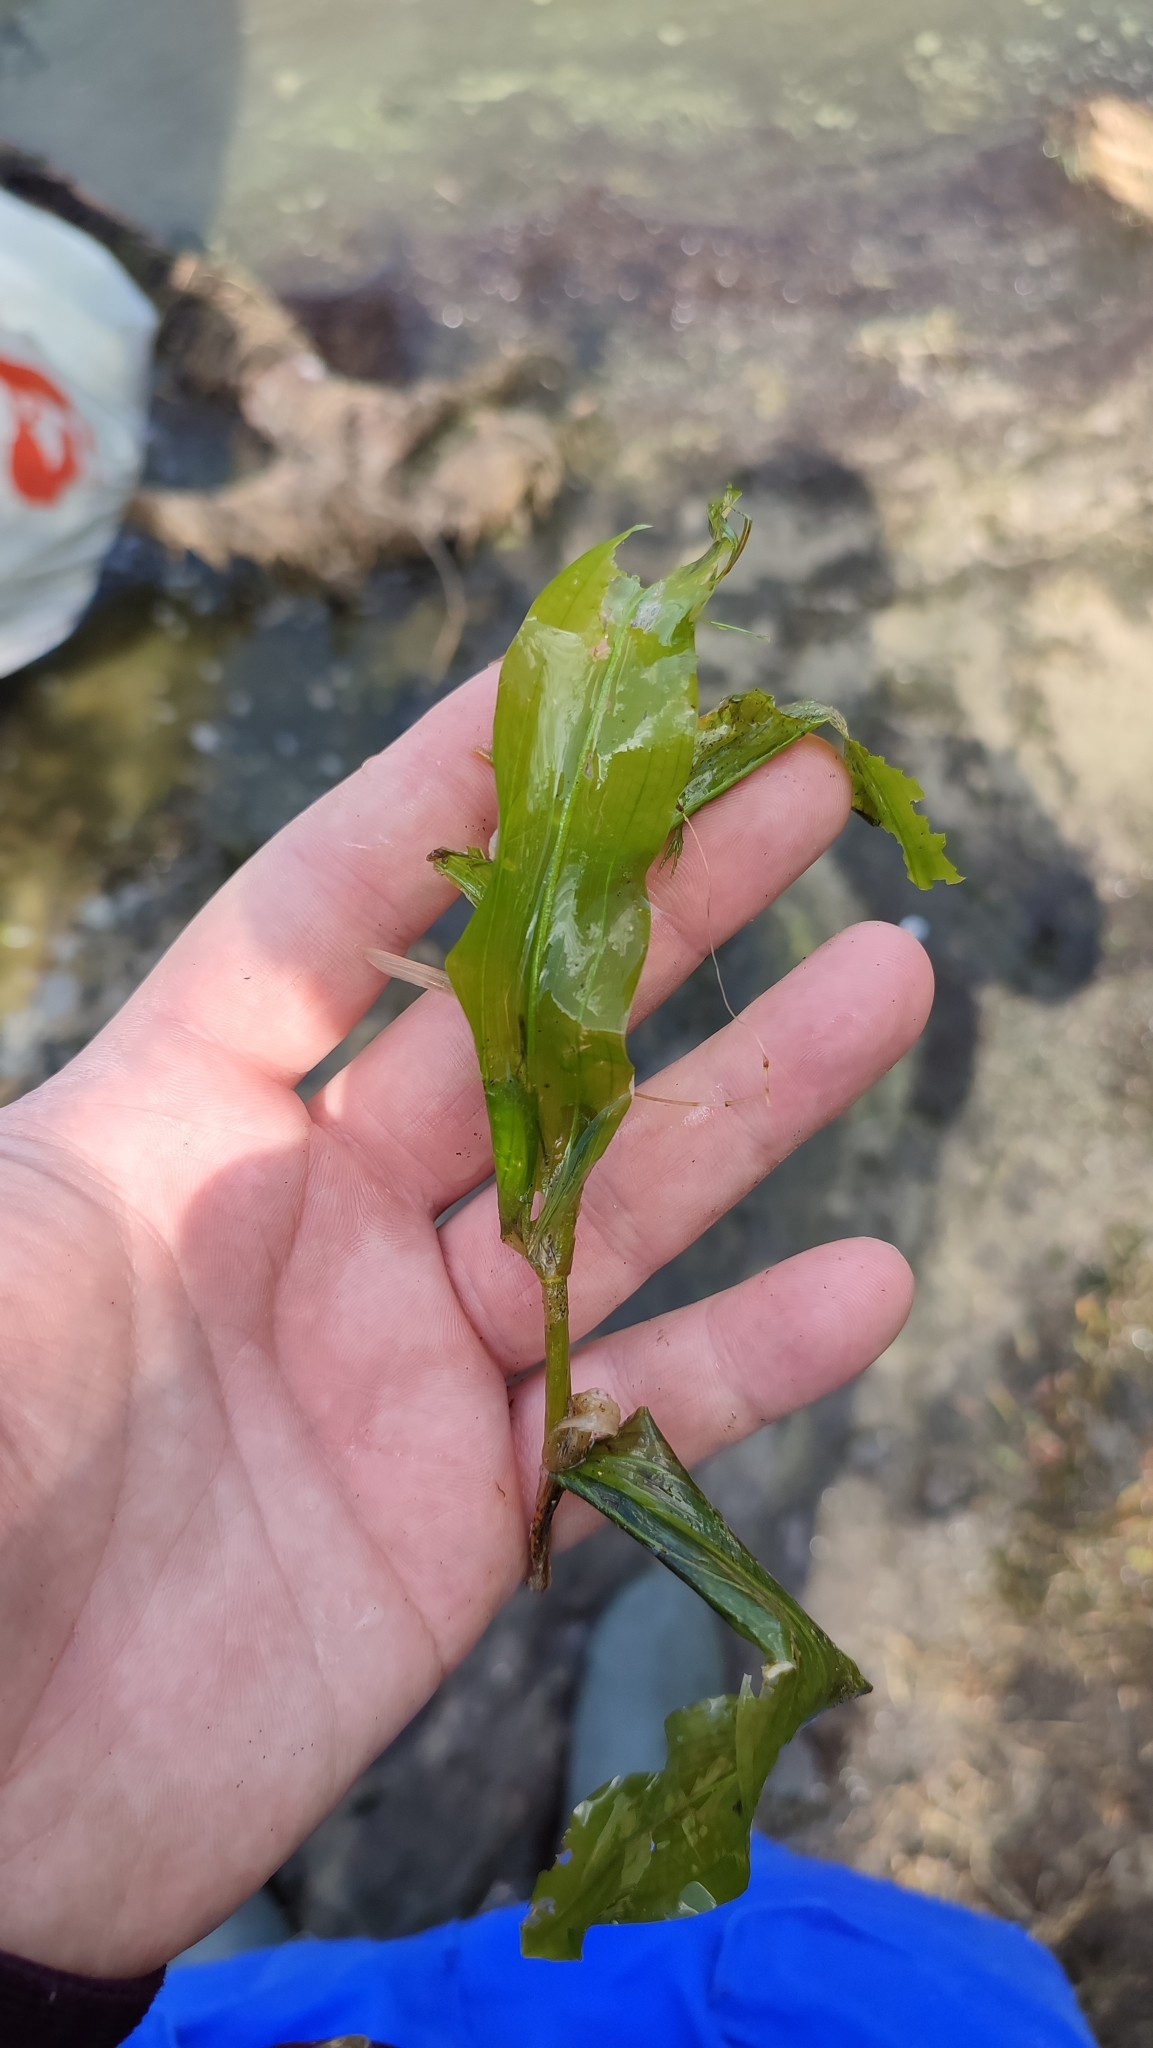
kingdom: Plantae
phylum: Tracheophyta
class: Liliopsida
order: Alismatales
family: Potamogetonaceae
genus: Potamogeton
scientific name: Potamogeton lucens
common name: Shining pondweed
